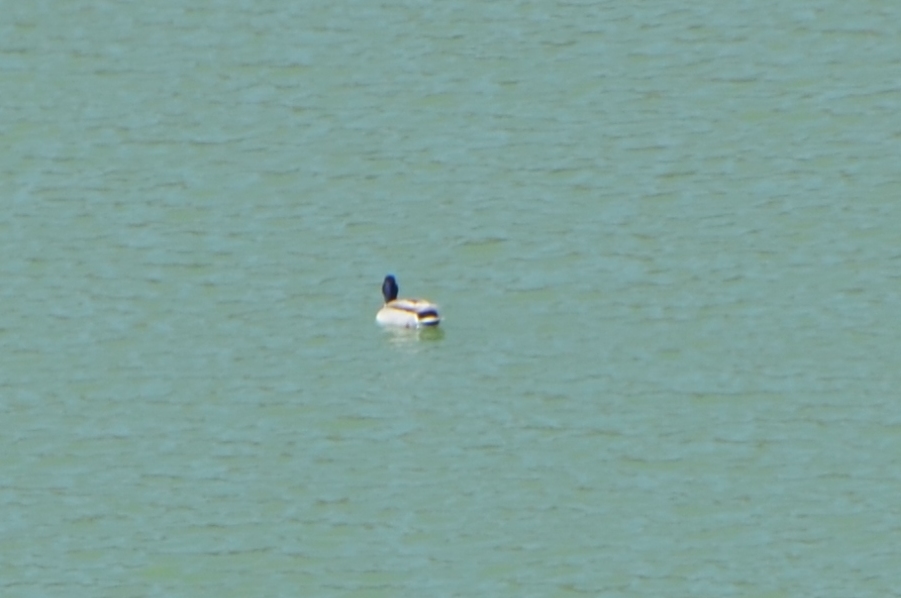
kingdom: Animalia
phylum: Chordata
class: Aves
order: Anseriformes
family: Anatidae
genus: Anas
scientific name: Anas platyrhynchos
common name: Mallard
